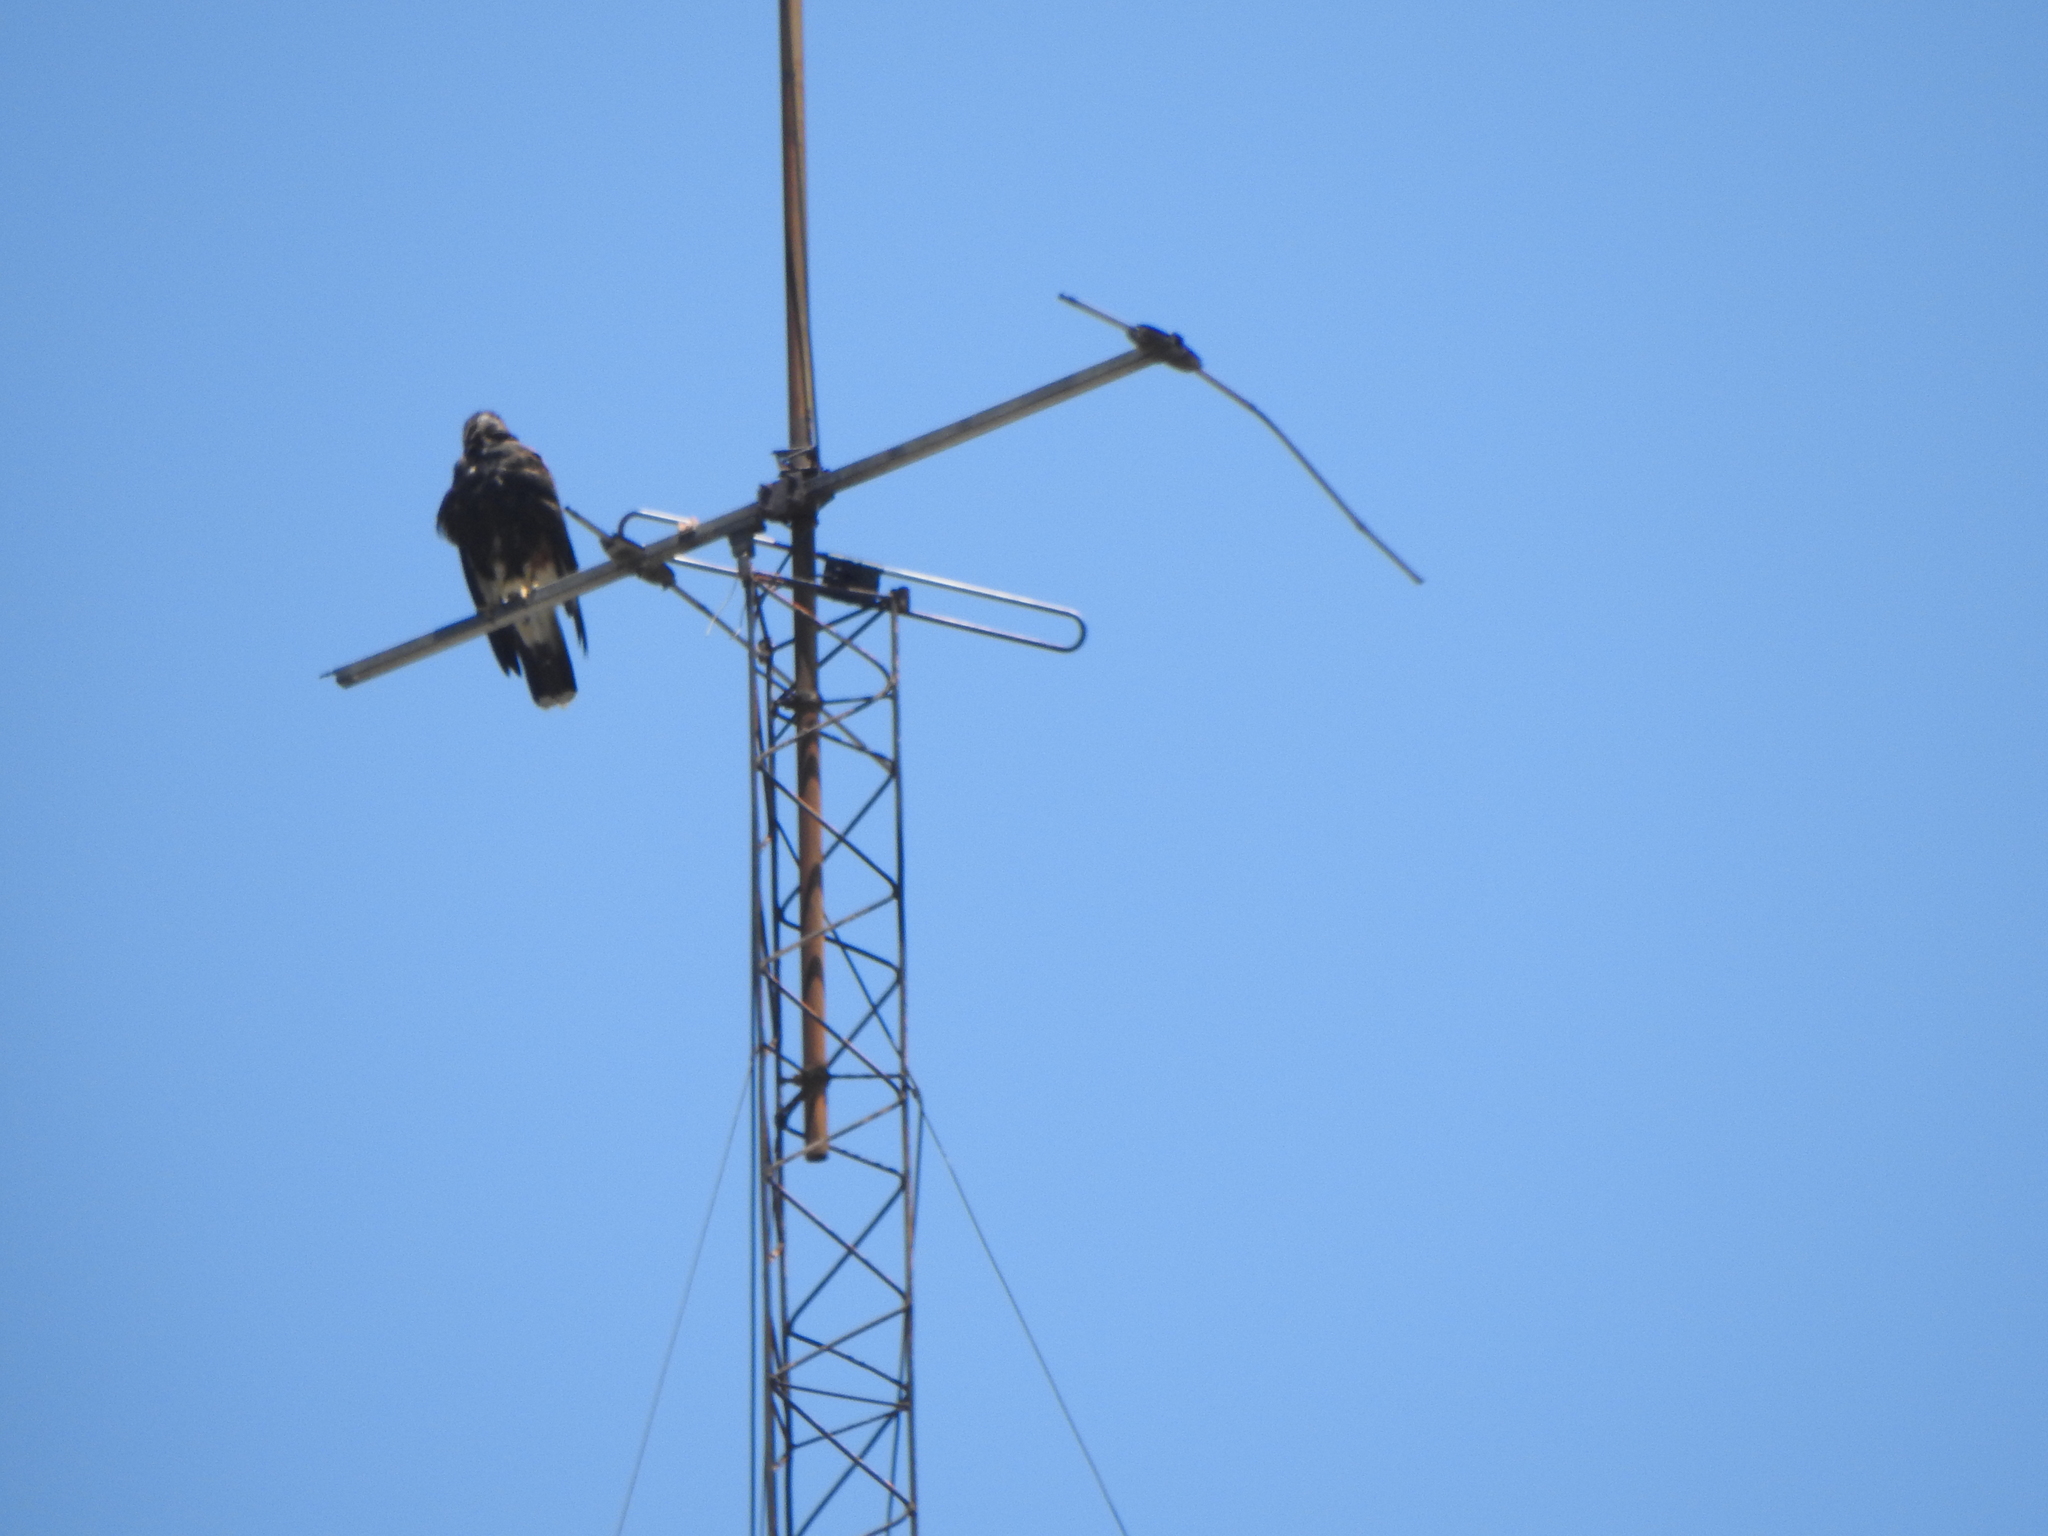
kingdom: Animalia
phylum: Chordata
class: Aves
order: Accipitriformes
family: Accipitridae
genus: Parabuteo
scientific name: Parabuteo unicinctus
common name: Harris's hawk
